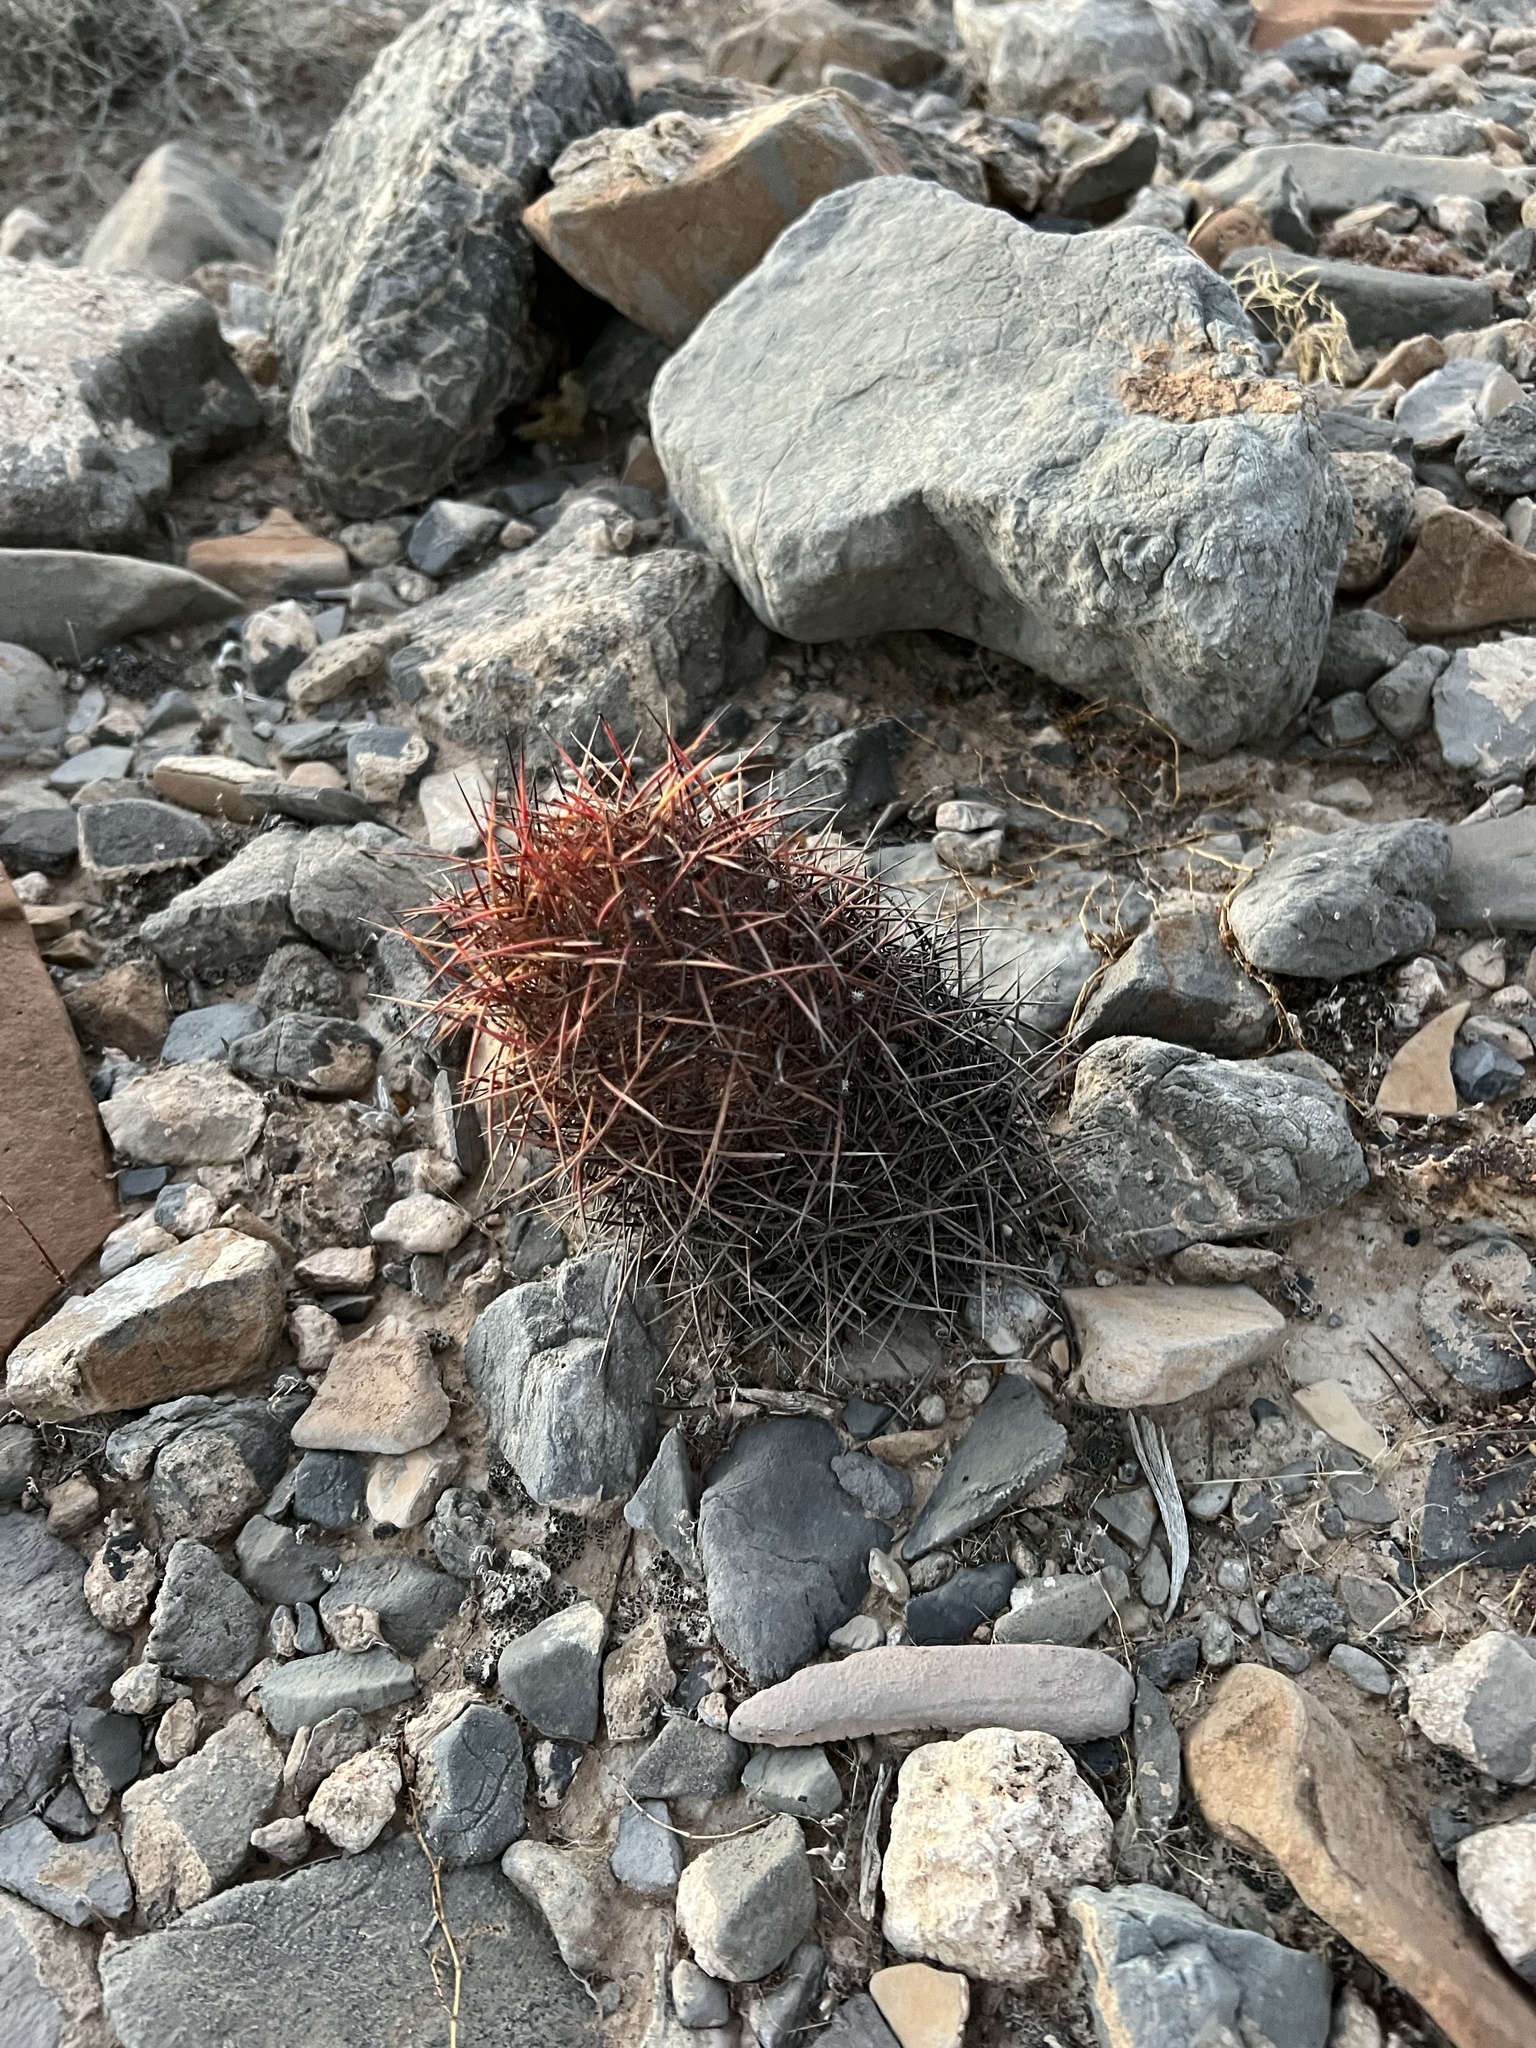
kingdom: Plantae
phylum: Tracheophyta
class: Magnoliopsida
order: Caryophyllales
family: Cactaceae
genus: Sclerocactus
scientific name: Sclerocactus johnsonii
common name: Eight-spine fishhook cactus
